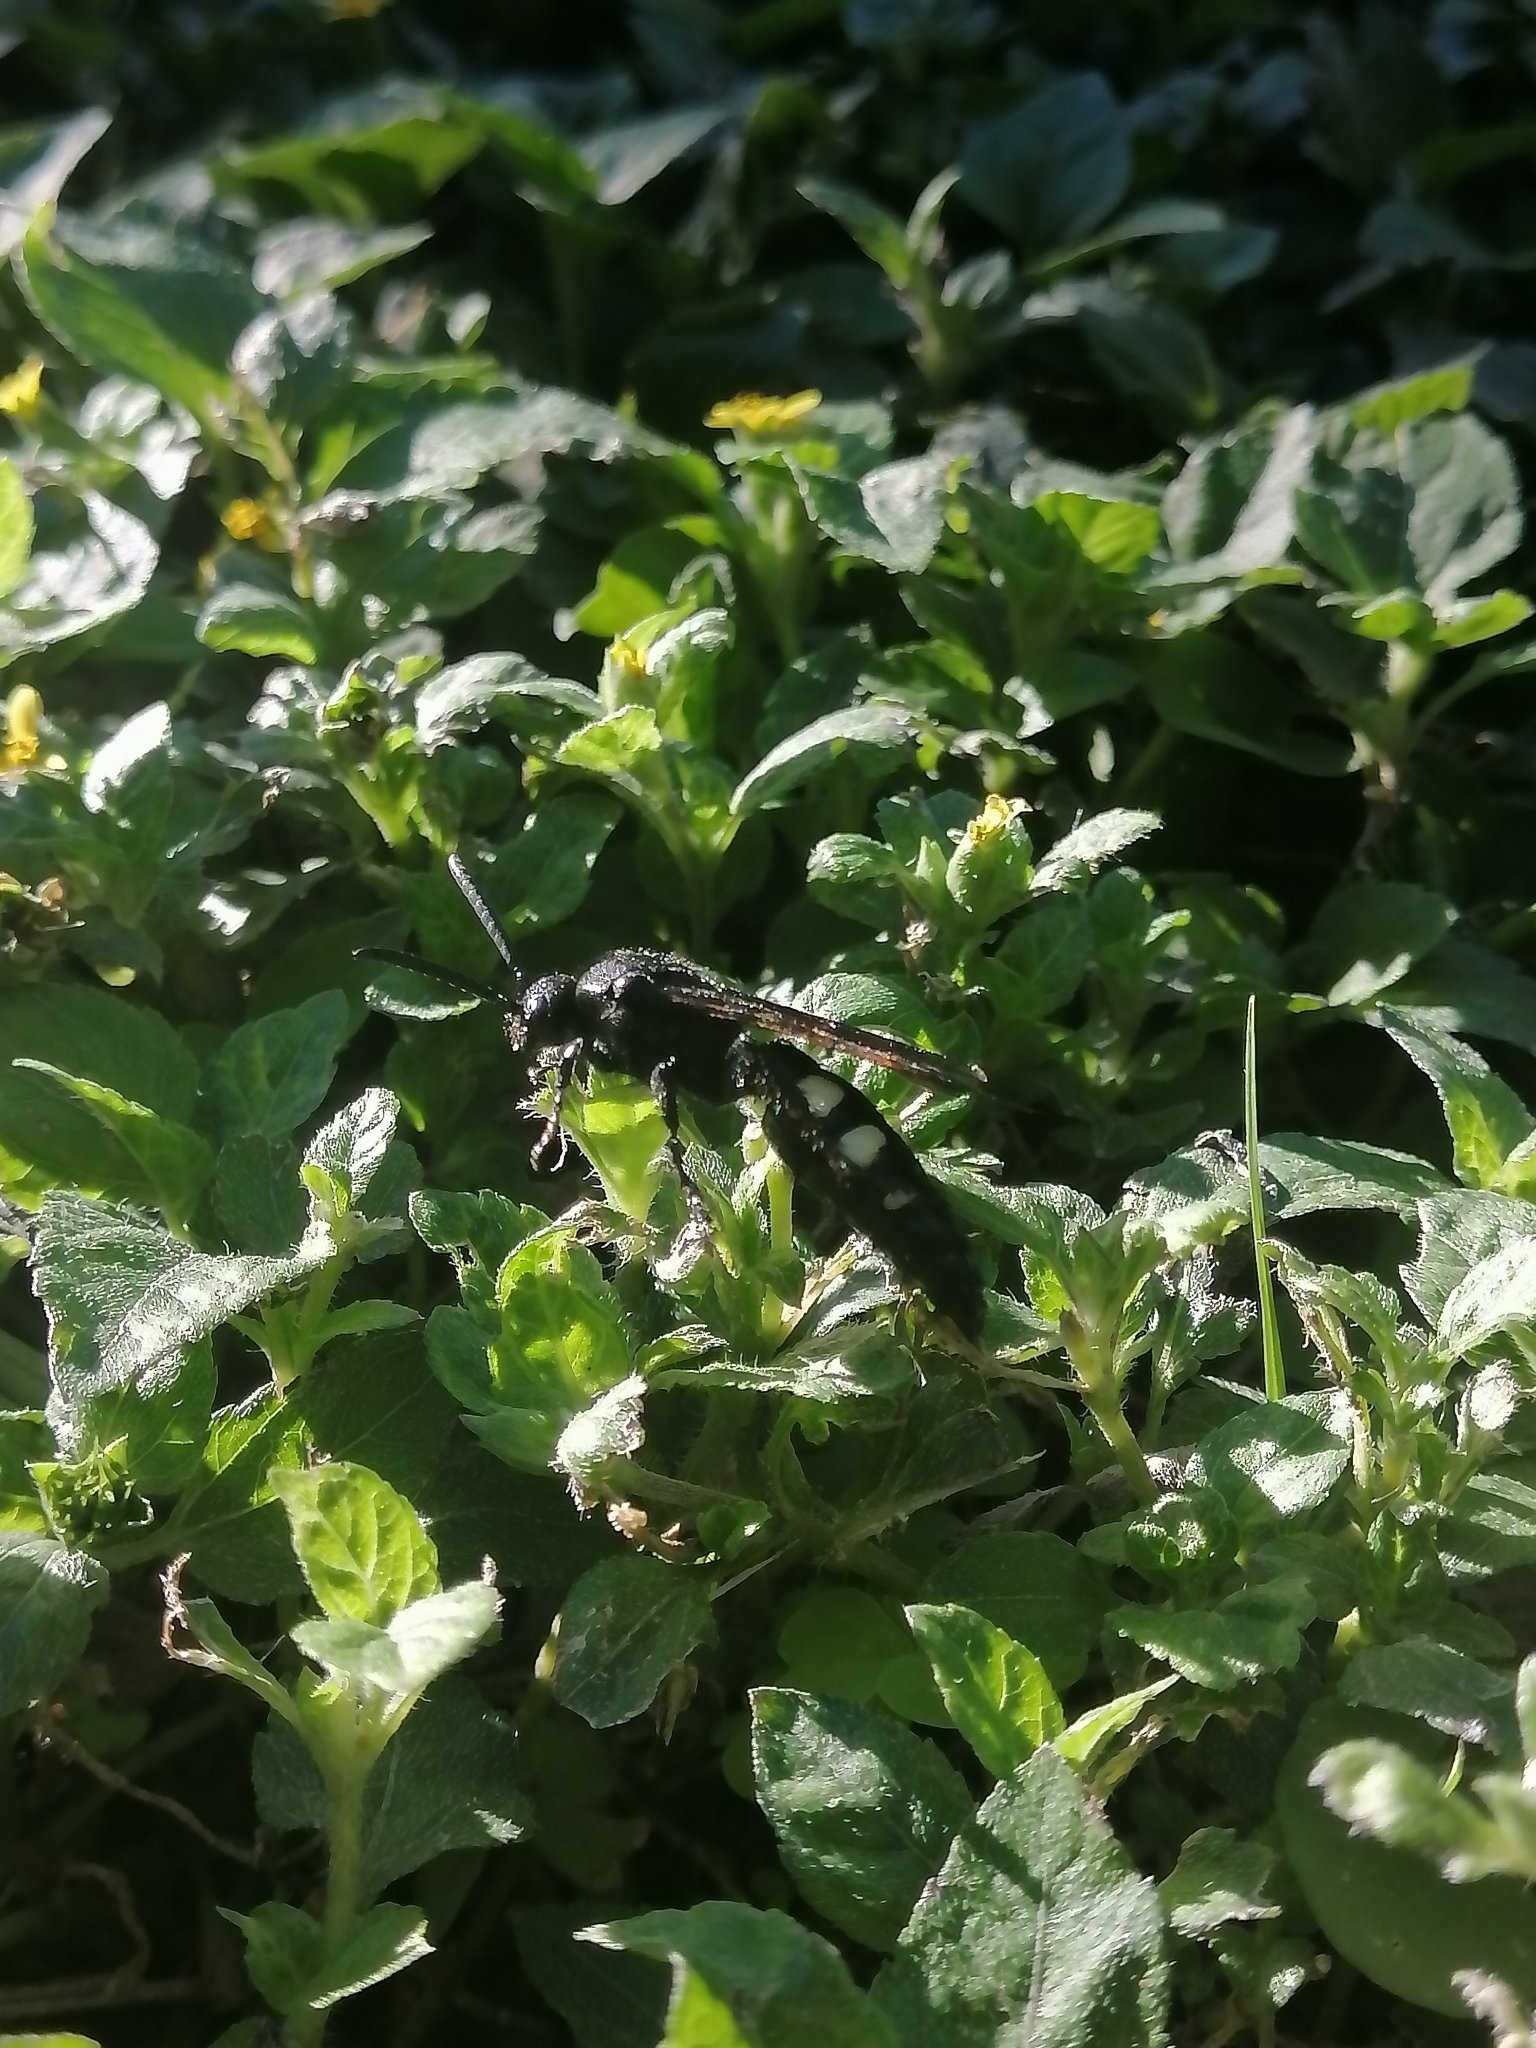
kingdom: Animalia
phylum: Arthropoda
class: Insecta
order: Hymenoptera
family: Scoliidae
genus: Scolia
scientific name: Scolia guttata
